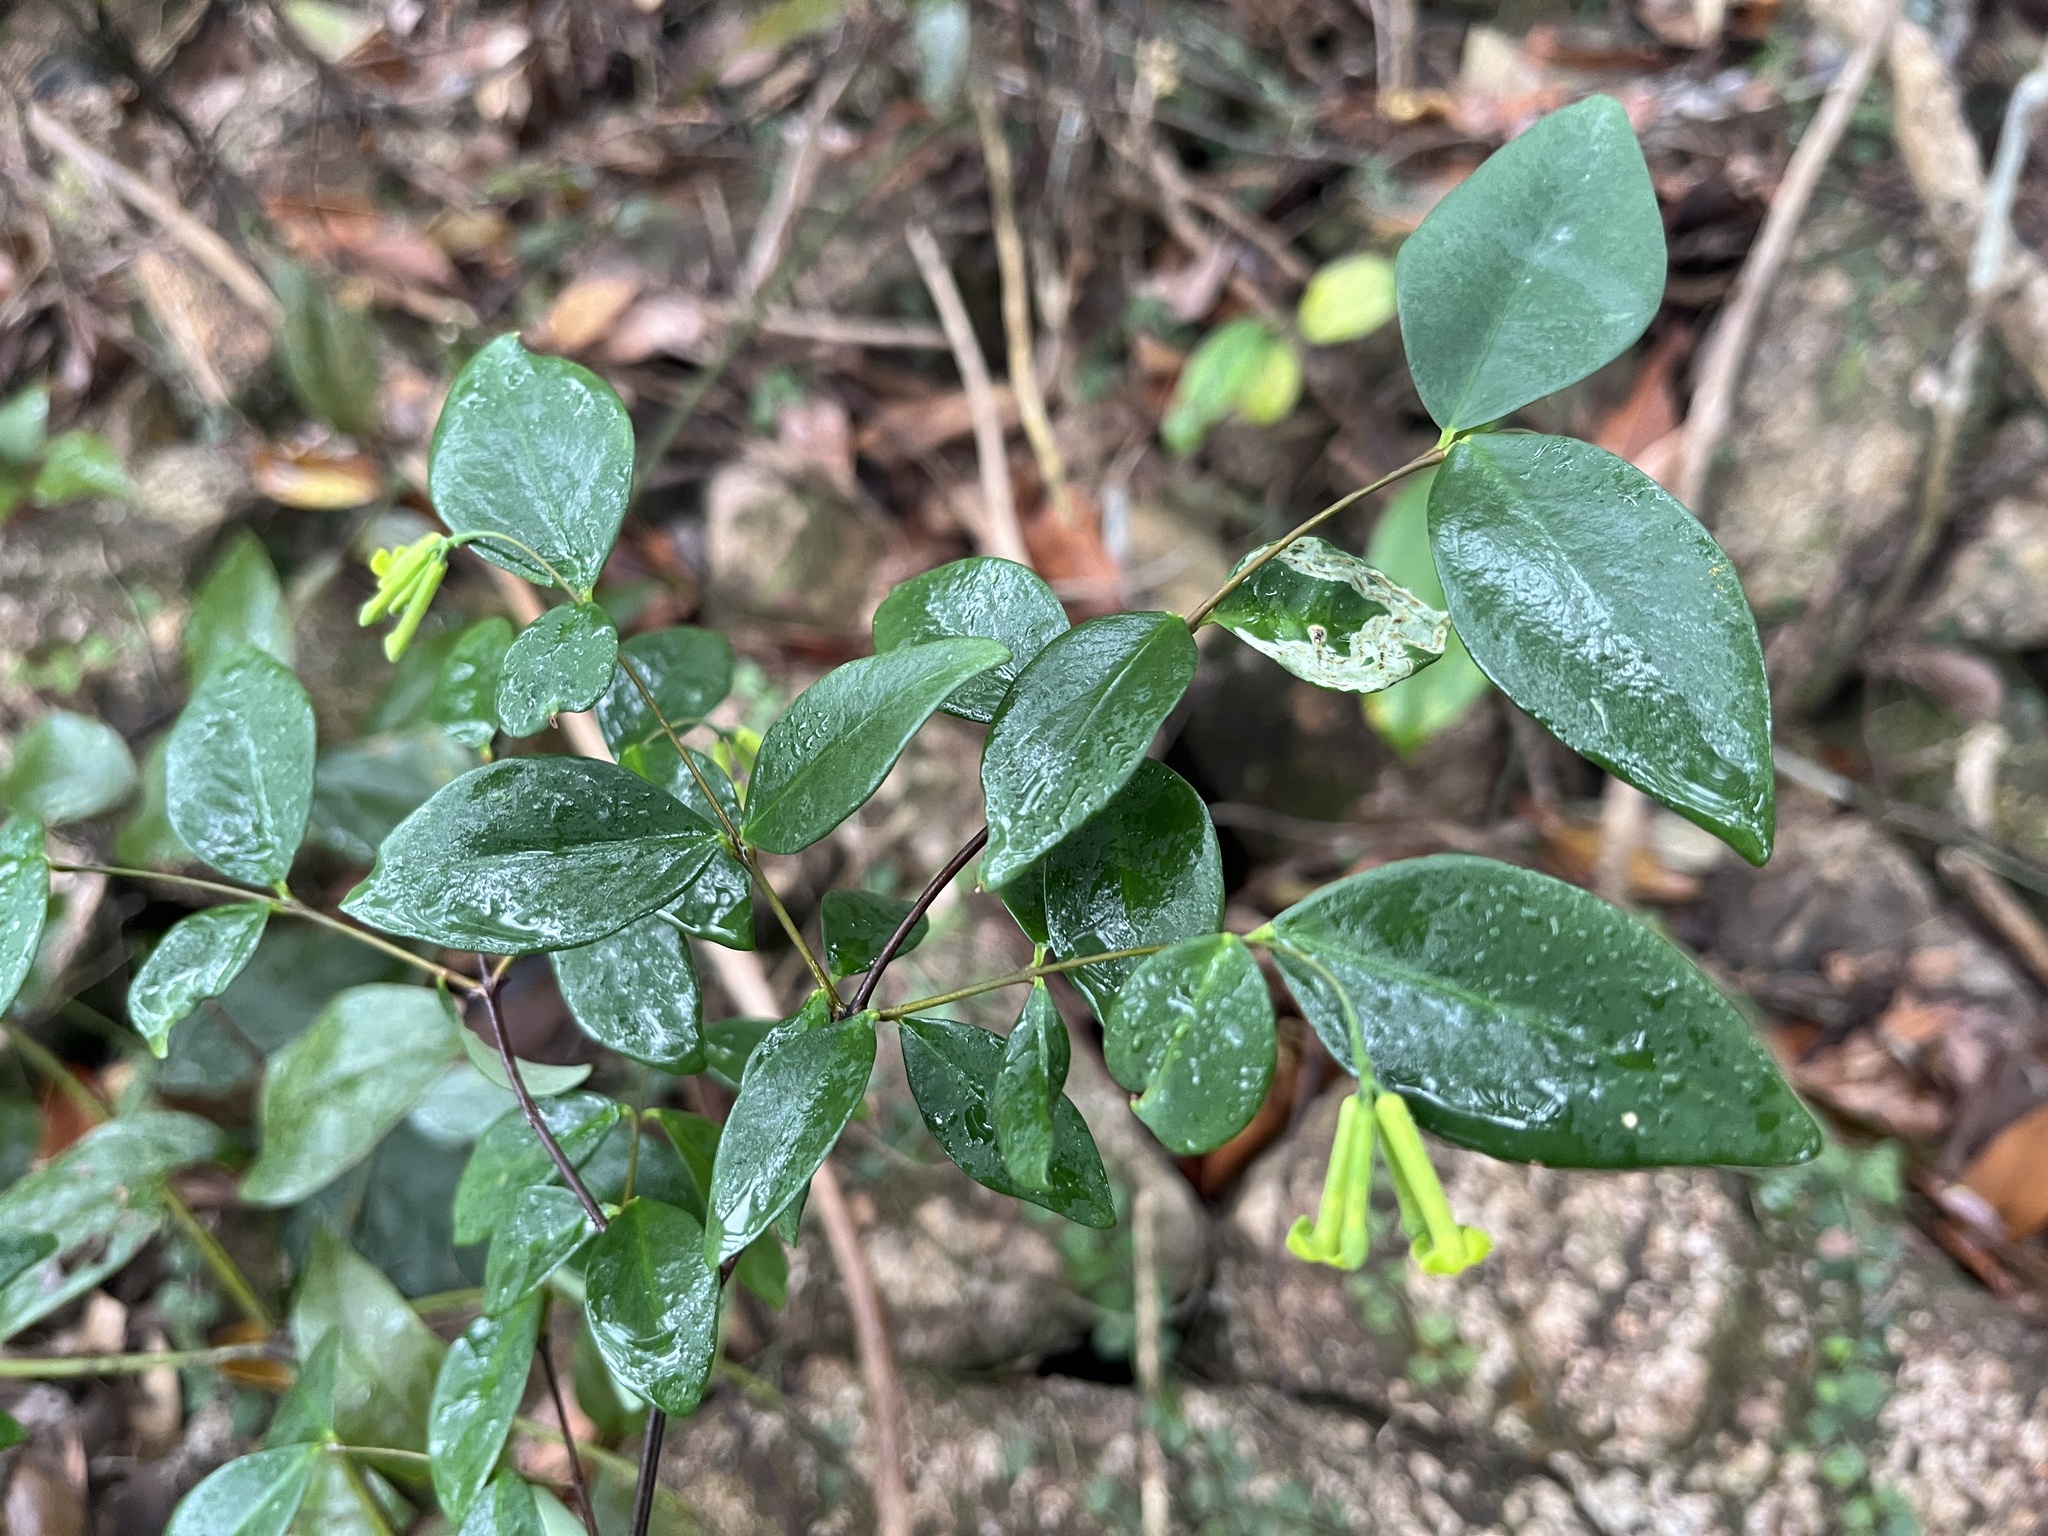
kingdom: Plantae
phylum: Tracheophyta
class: Magnoliopsida
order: Malvales
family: Thymelaeaceae
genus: Wikstroemia
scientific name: Wikstroemia nutans
